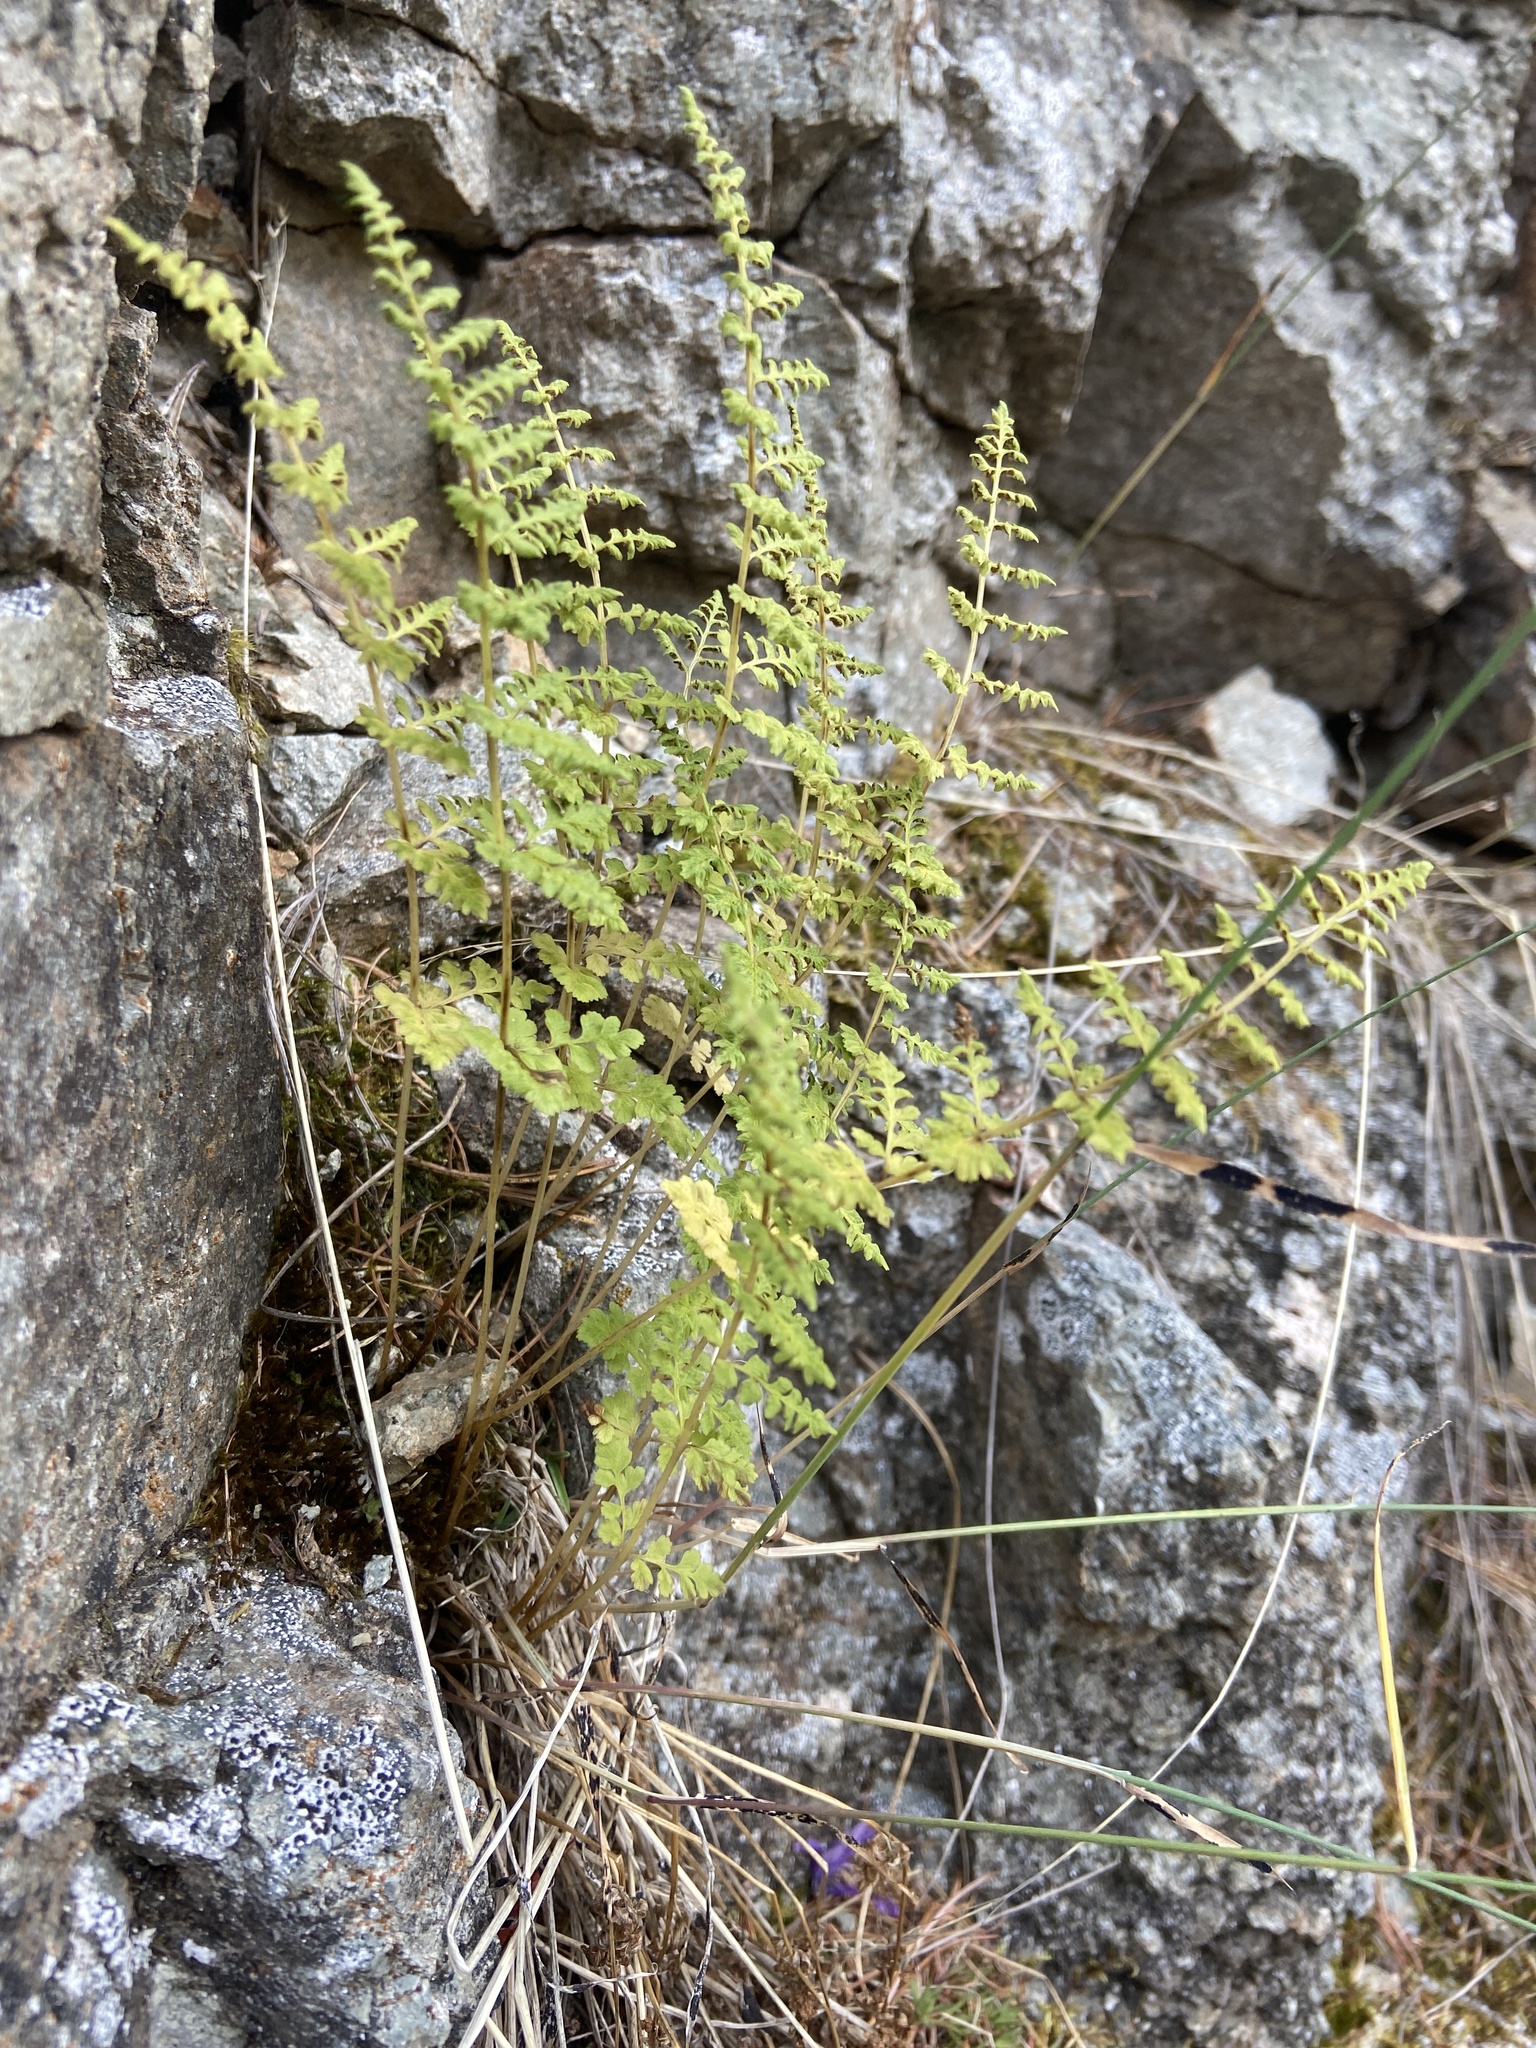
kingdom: Plantae
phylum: Tracheophyta
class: Polypodiopsida
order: Polypodiales
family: Cystopteridaceae
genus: Cystopteris
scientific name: Cystopteris fragilis
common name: Brittle bladder fern
